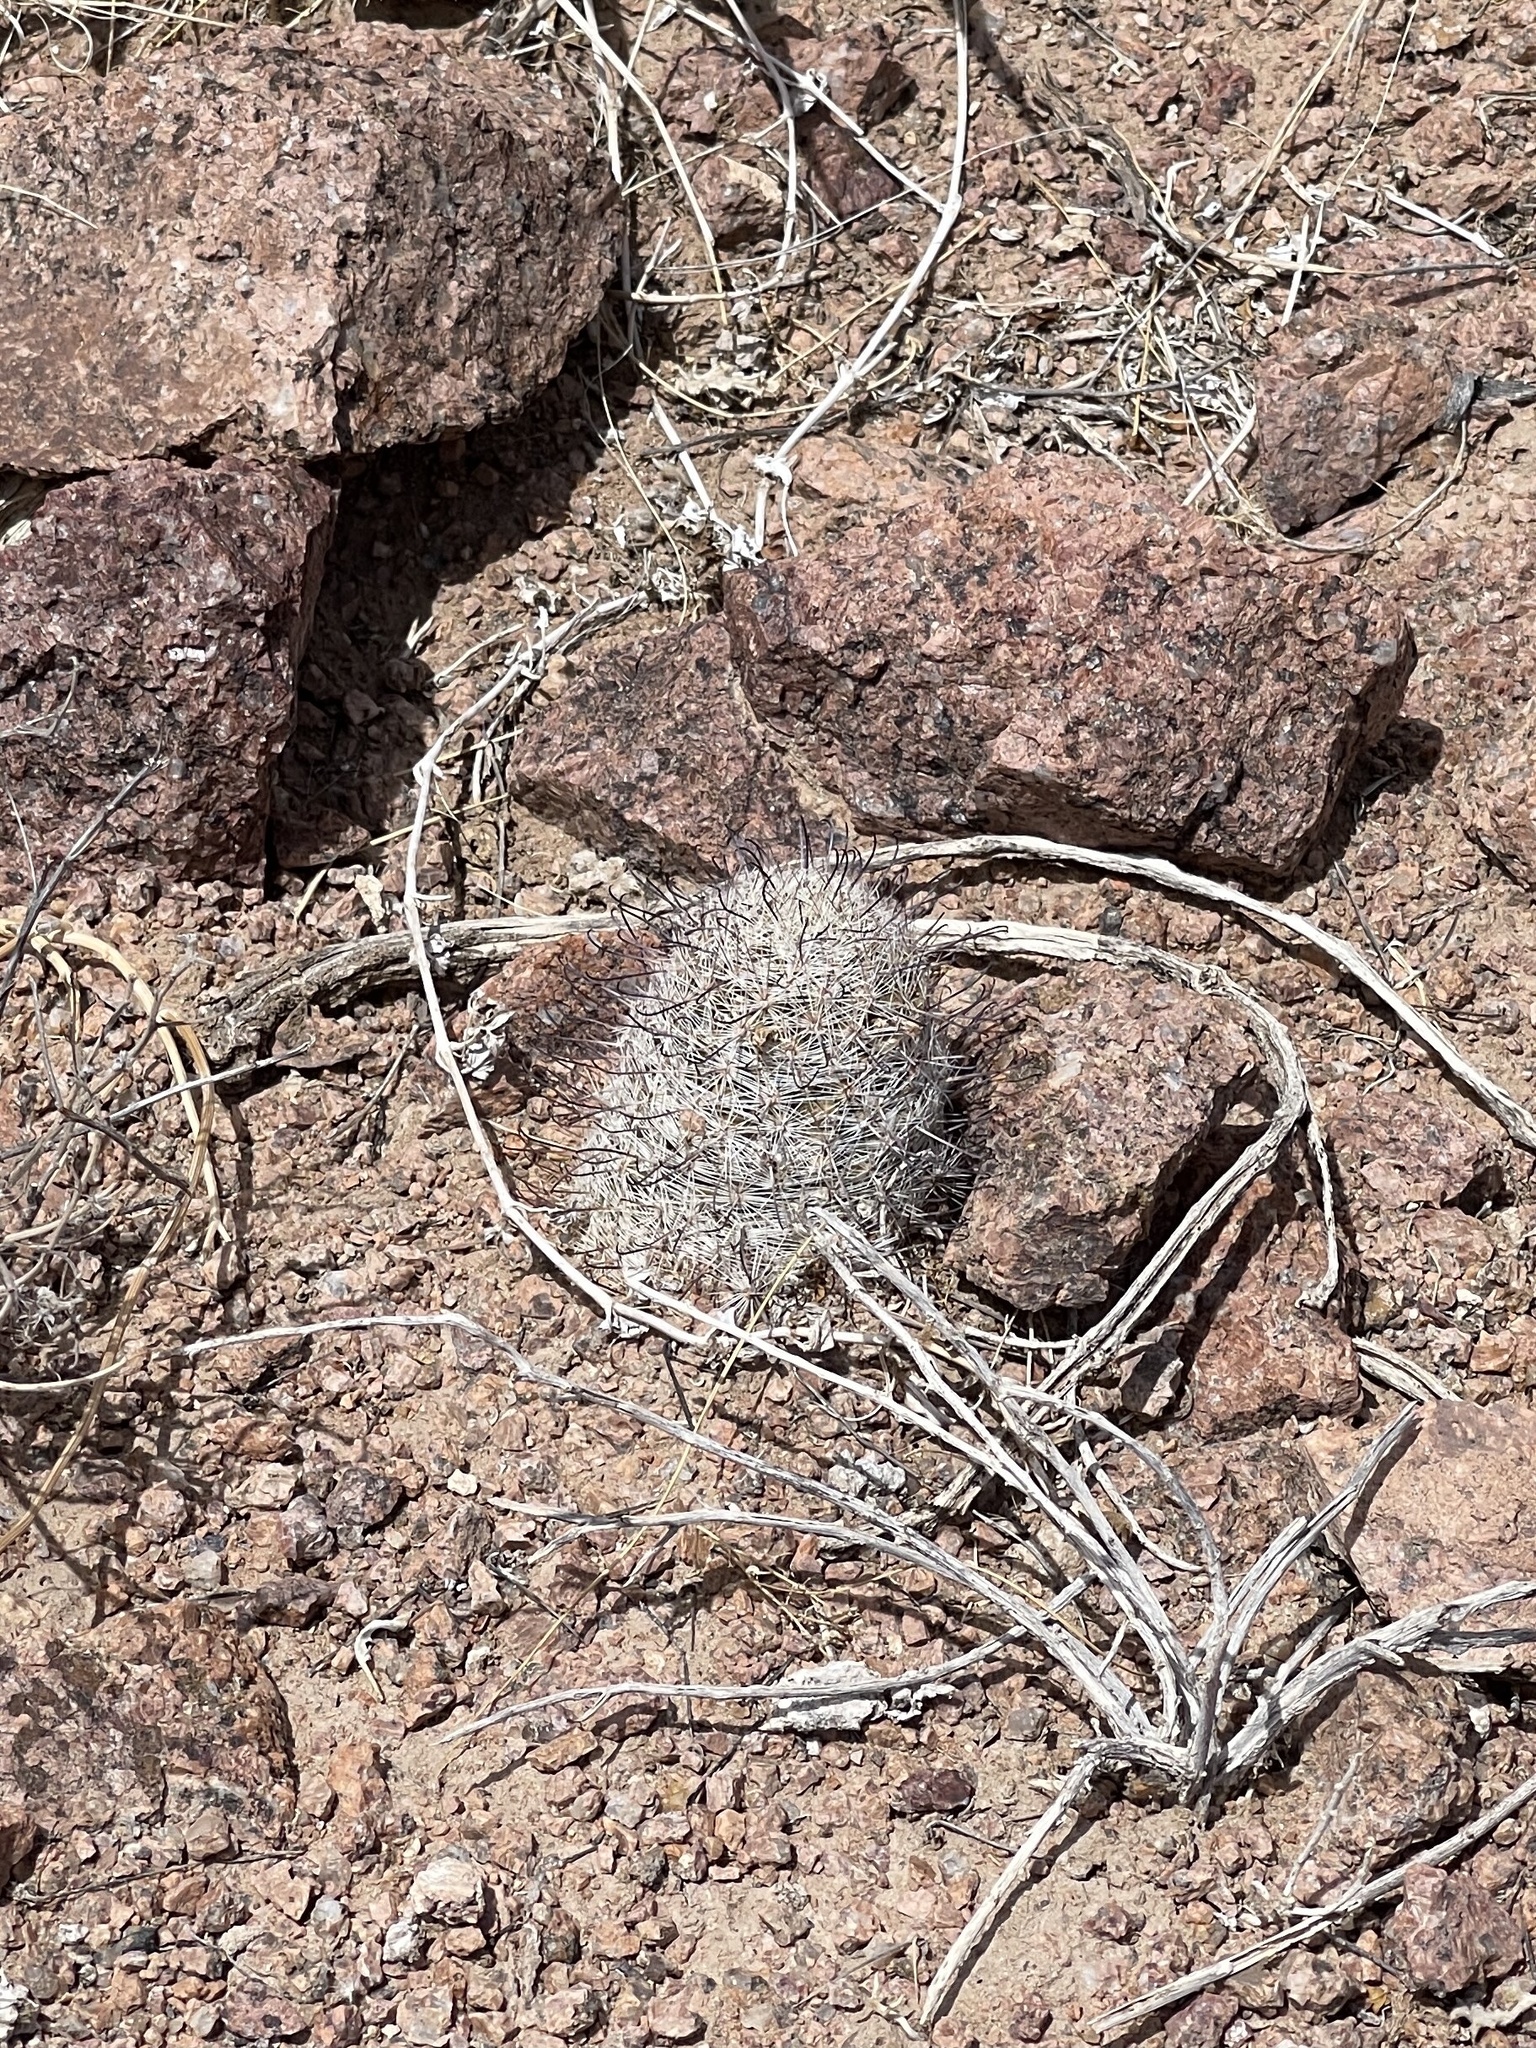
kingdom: Plantae
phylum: Tracheophyta
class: Magnoliopsida
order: Caryophyllales
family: Cactaceae
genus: Cochemiea
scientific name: Cochemiea grahamii
